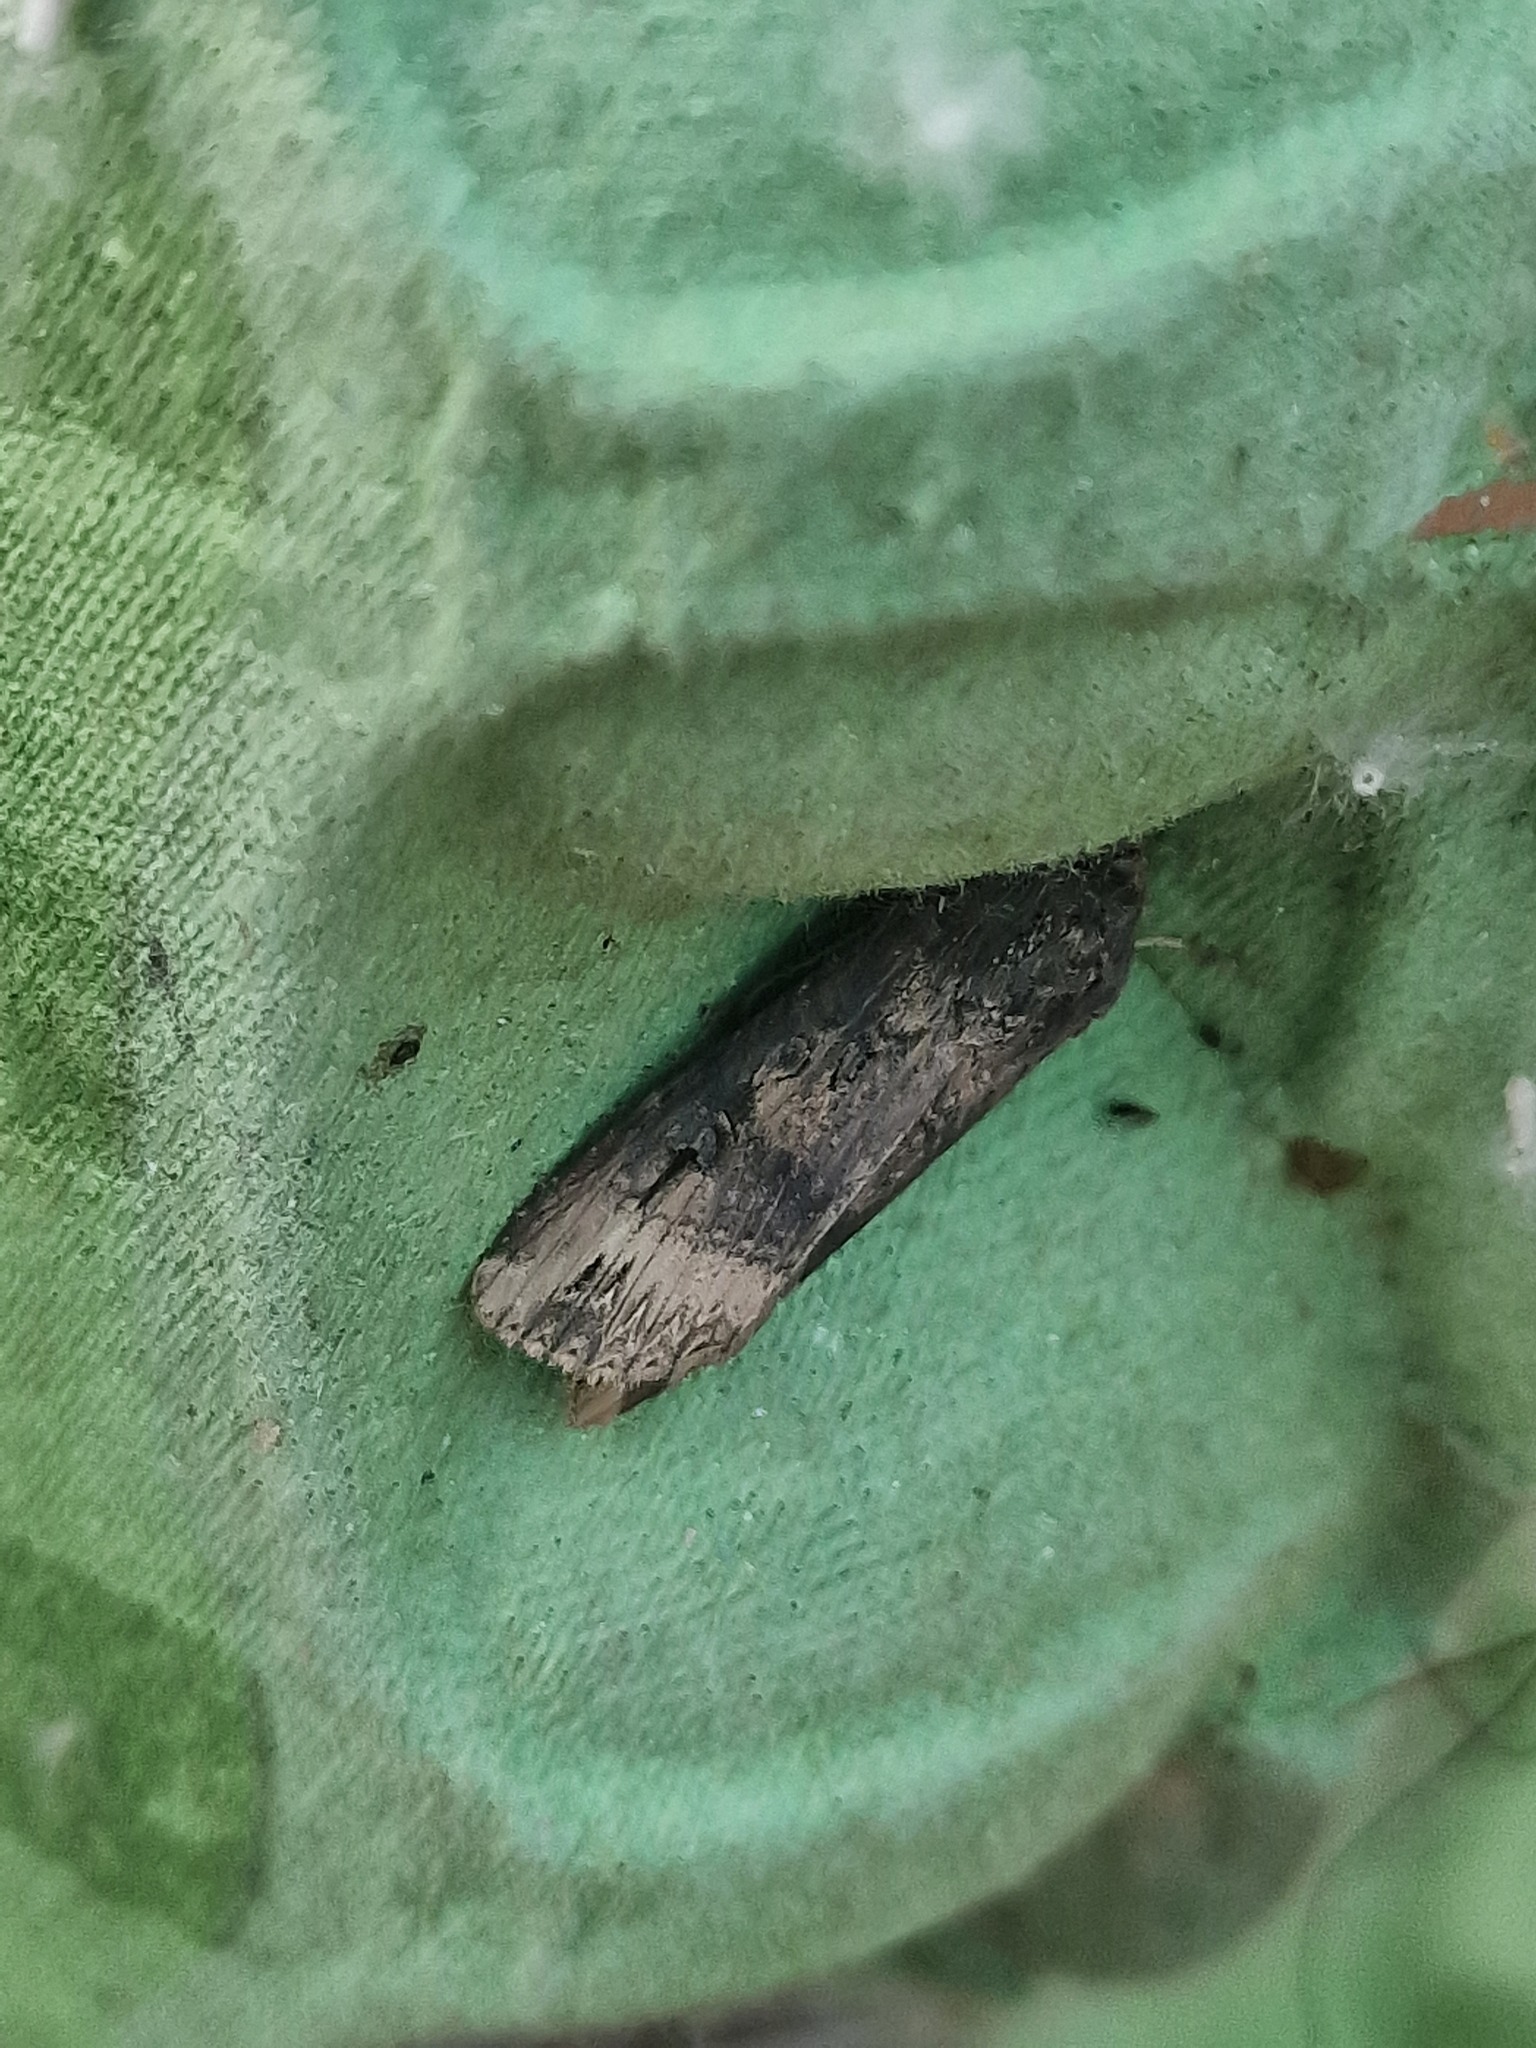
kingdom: Animalia
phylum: Arthropoda
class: Insecta
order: Lepidoptera
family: Noctuidae
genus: Agrotis
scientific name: Agrotis ipsilon
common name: Dark sword-grass
